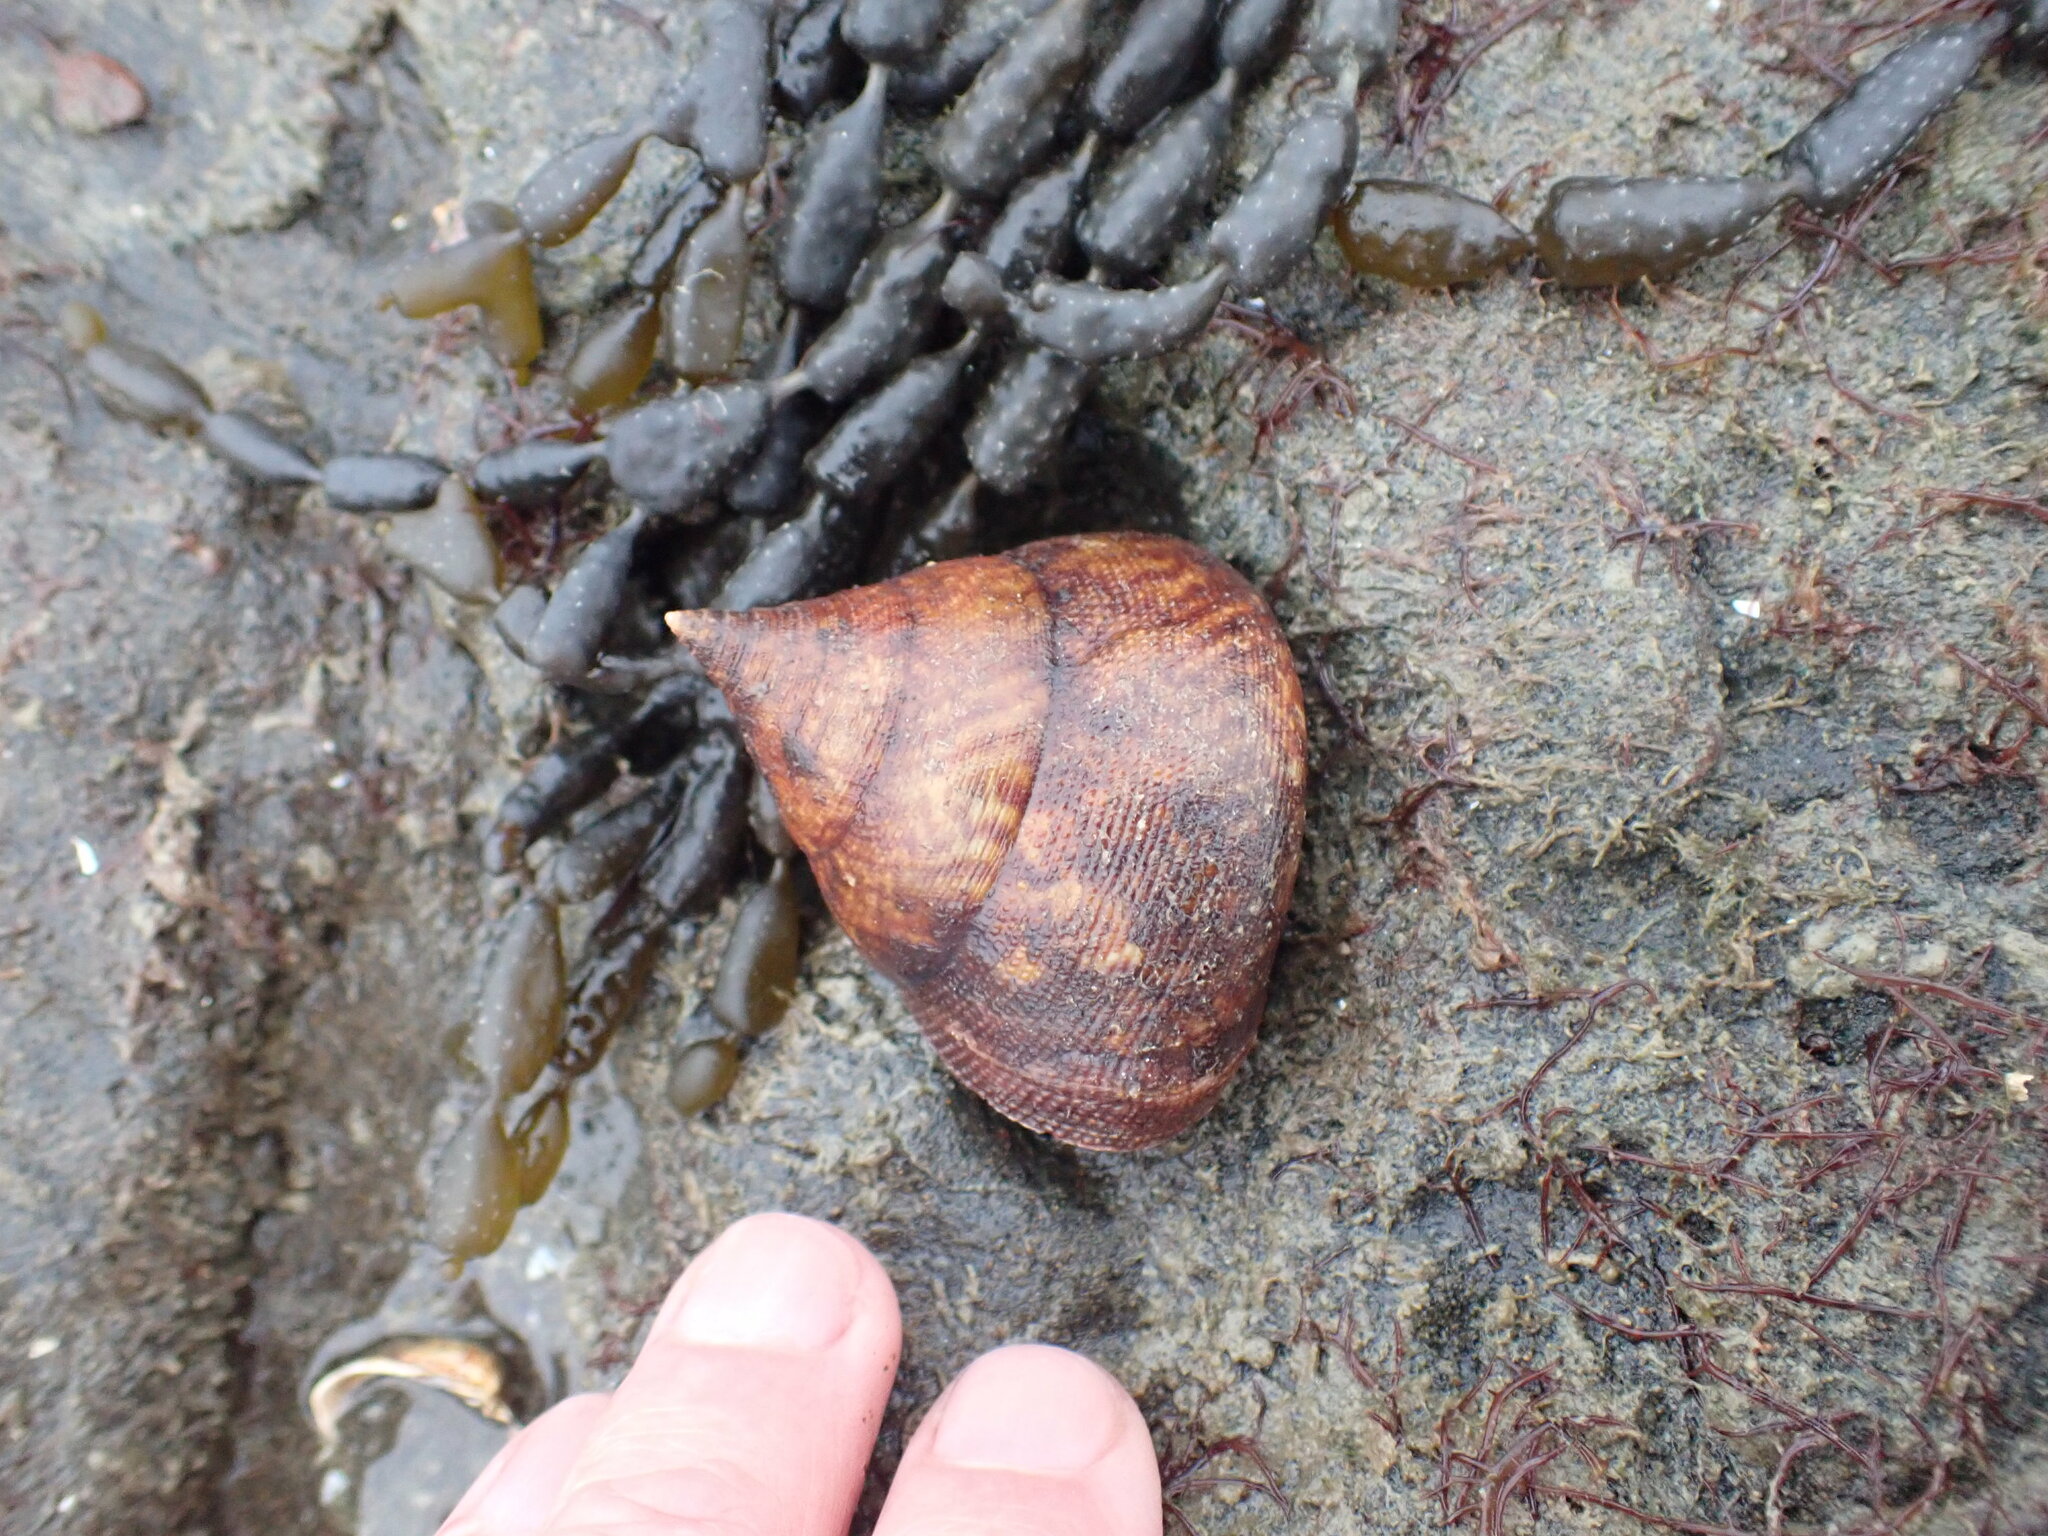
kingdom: Animalia
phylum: Mollusca
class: Gastropoda
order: Trochida
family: Calliostomatidae
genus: Maurea
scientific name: Maurea tigris
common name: Tiger maurea
